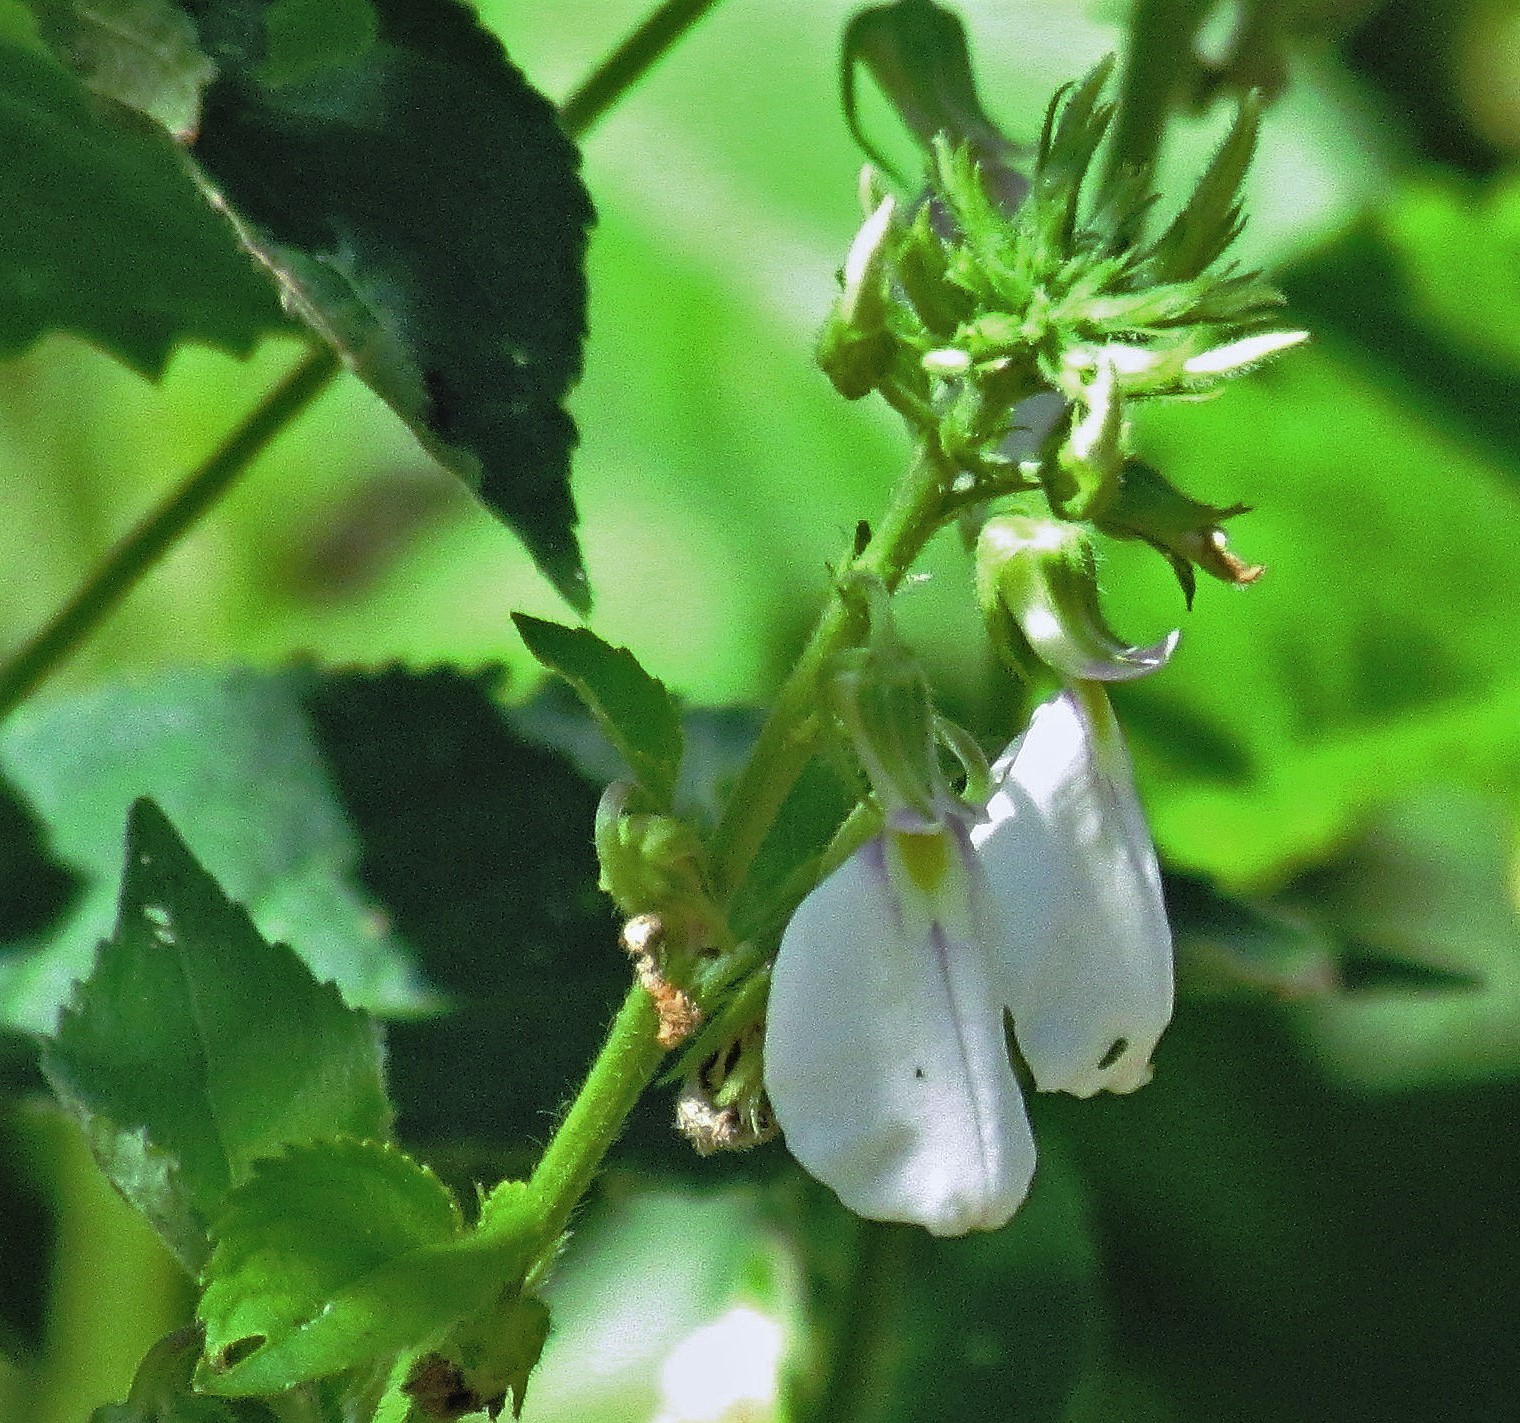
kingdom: Plantae
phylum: Tracheophyta
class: Magnoliopsida
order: Malpighiales
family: Violaceae
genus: Pombalia
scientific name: Pombalia bicolor
